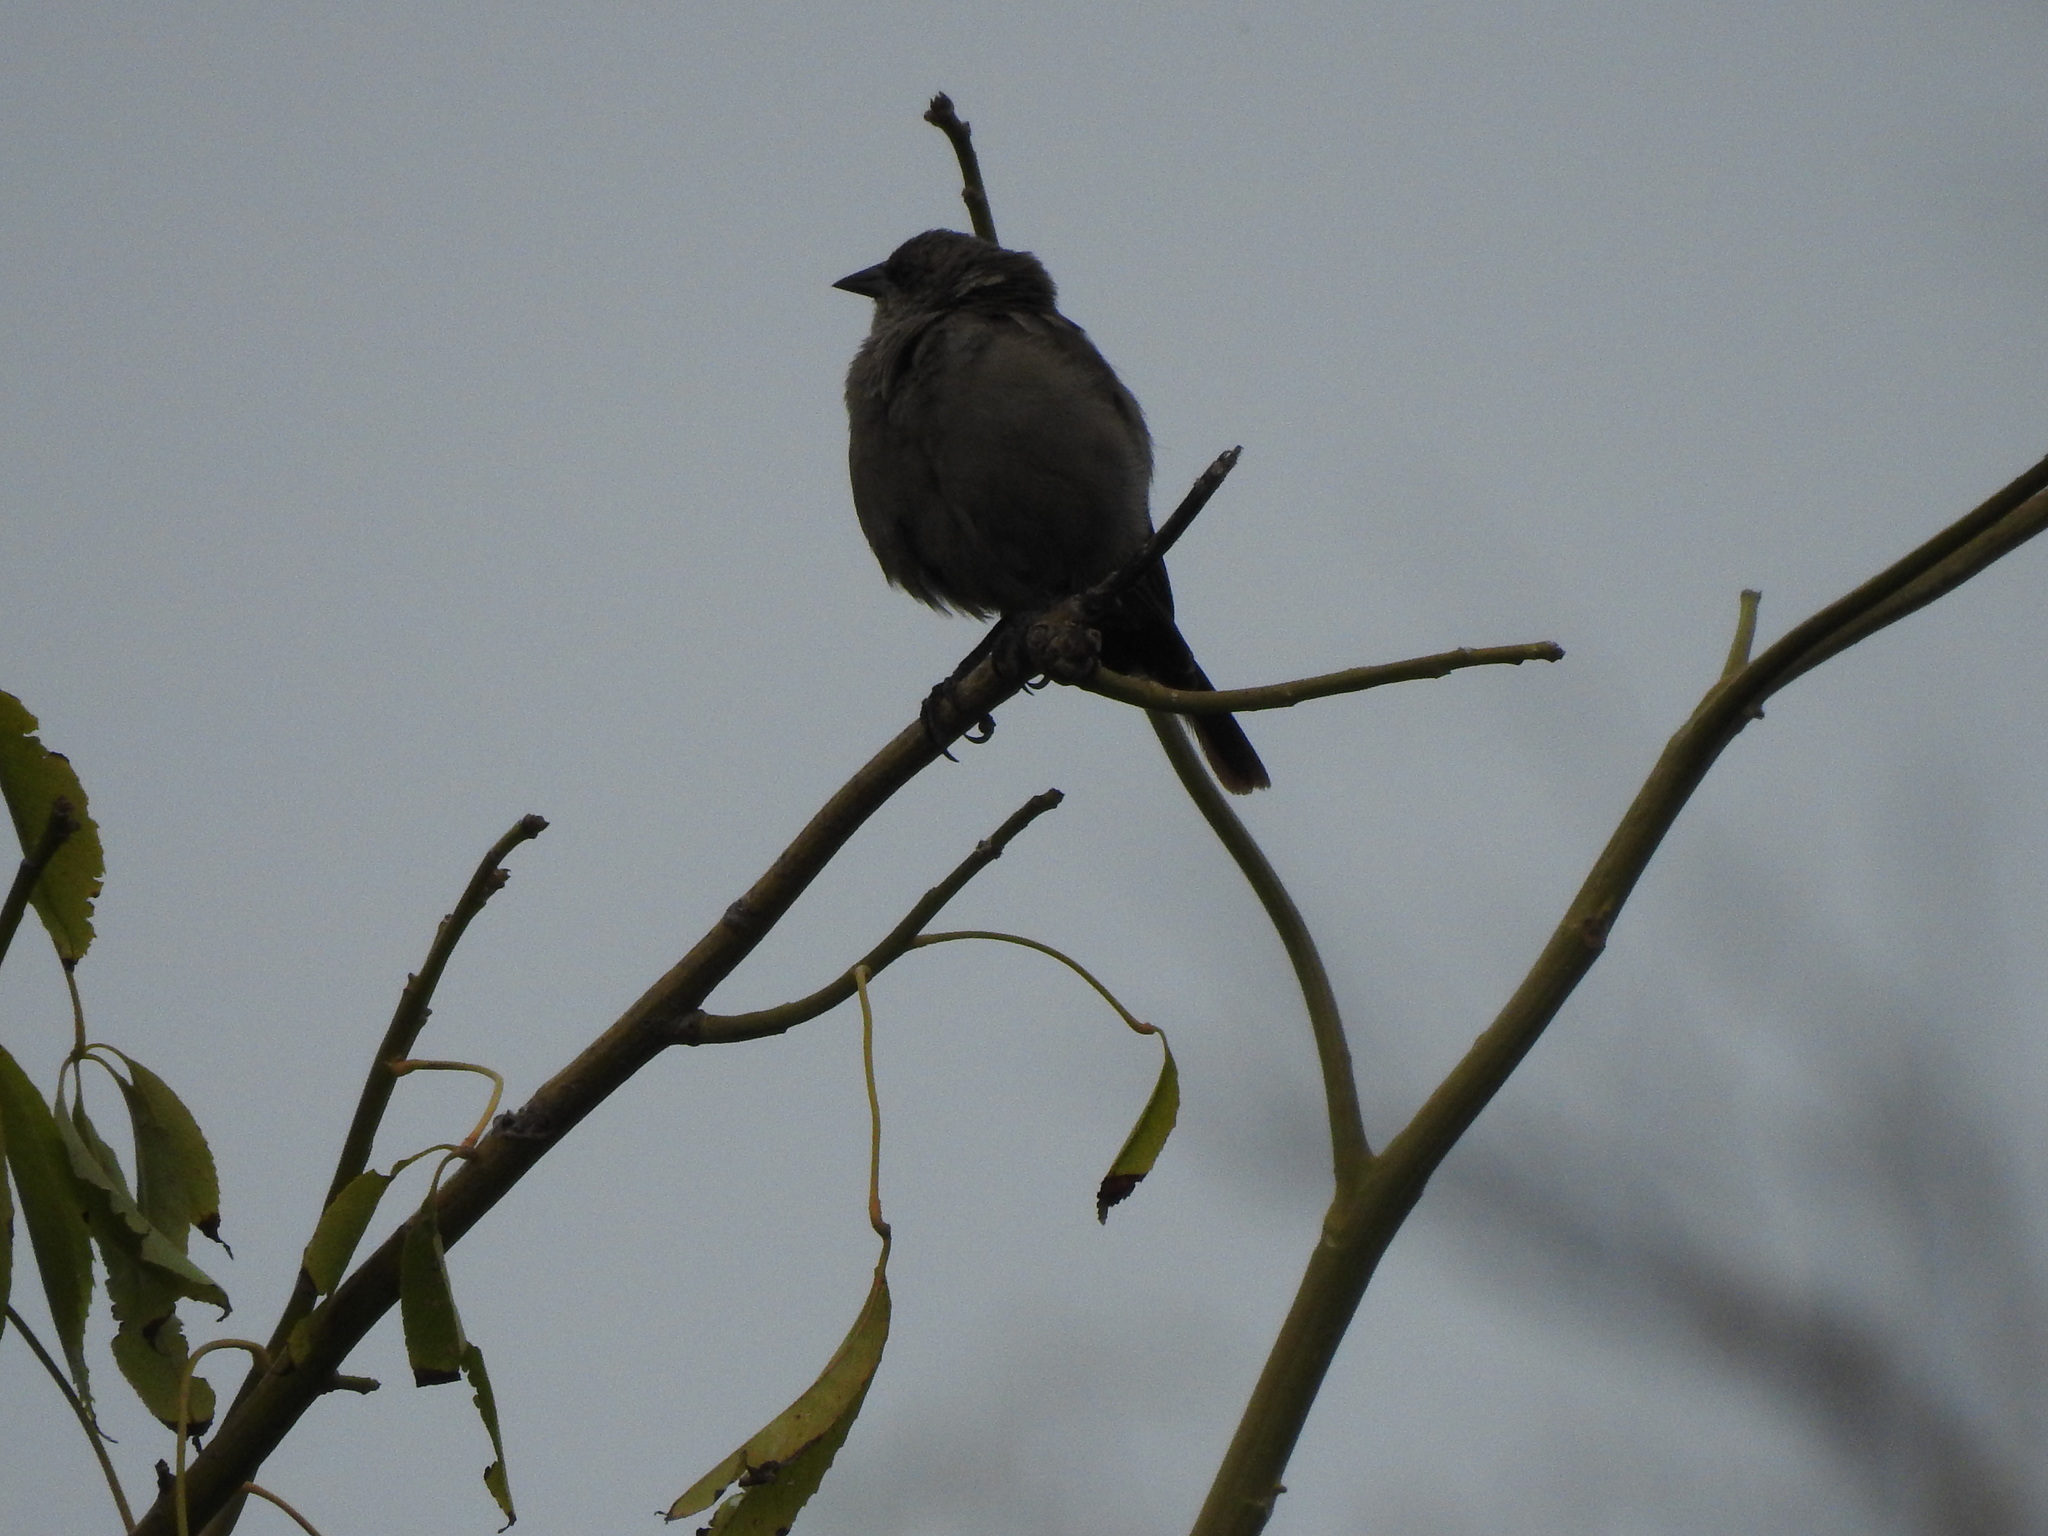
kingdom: Animalia
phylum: Chordata
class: Aves
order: Passeriformes
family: Icteridae
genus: Agelaioides
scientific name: Agelaioides badius
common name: Baywing
